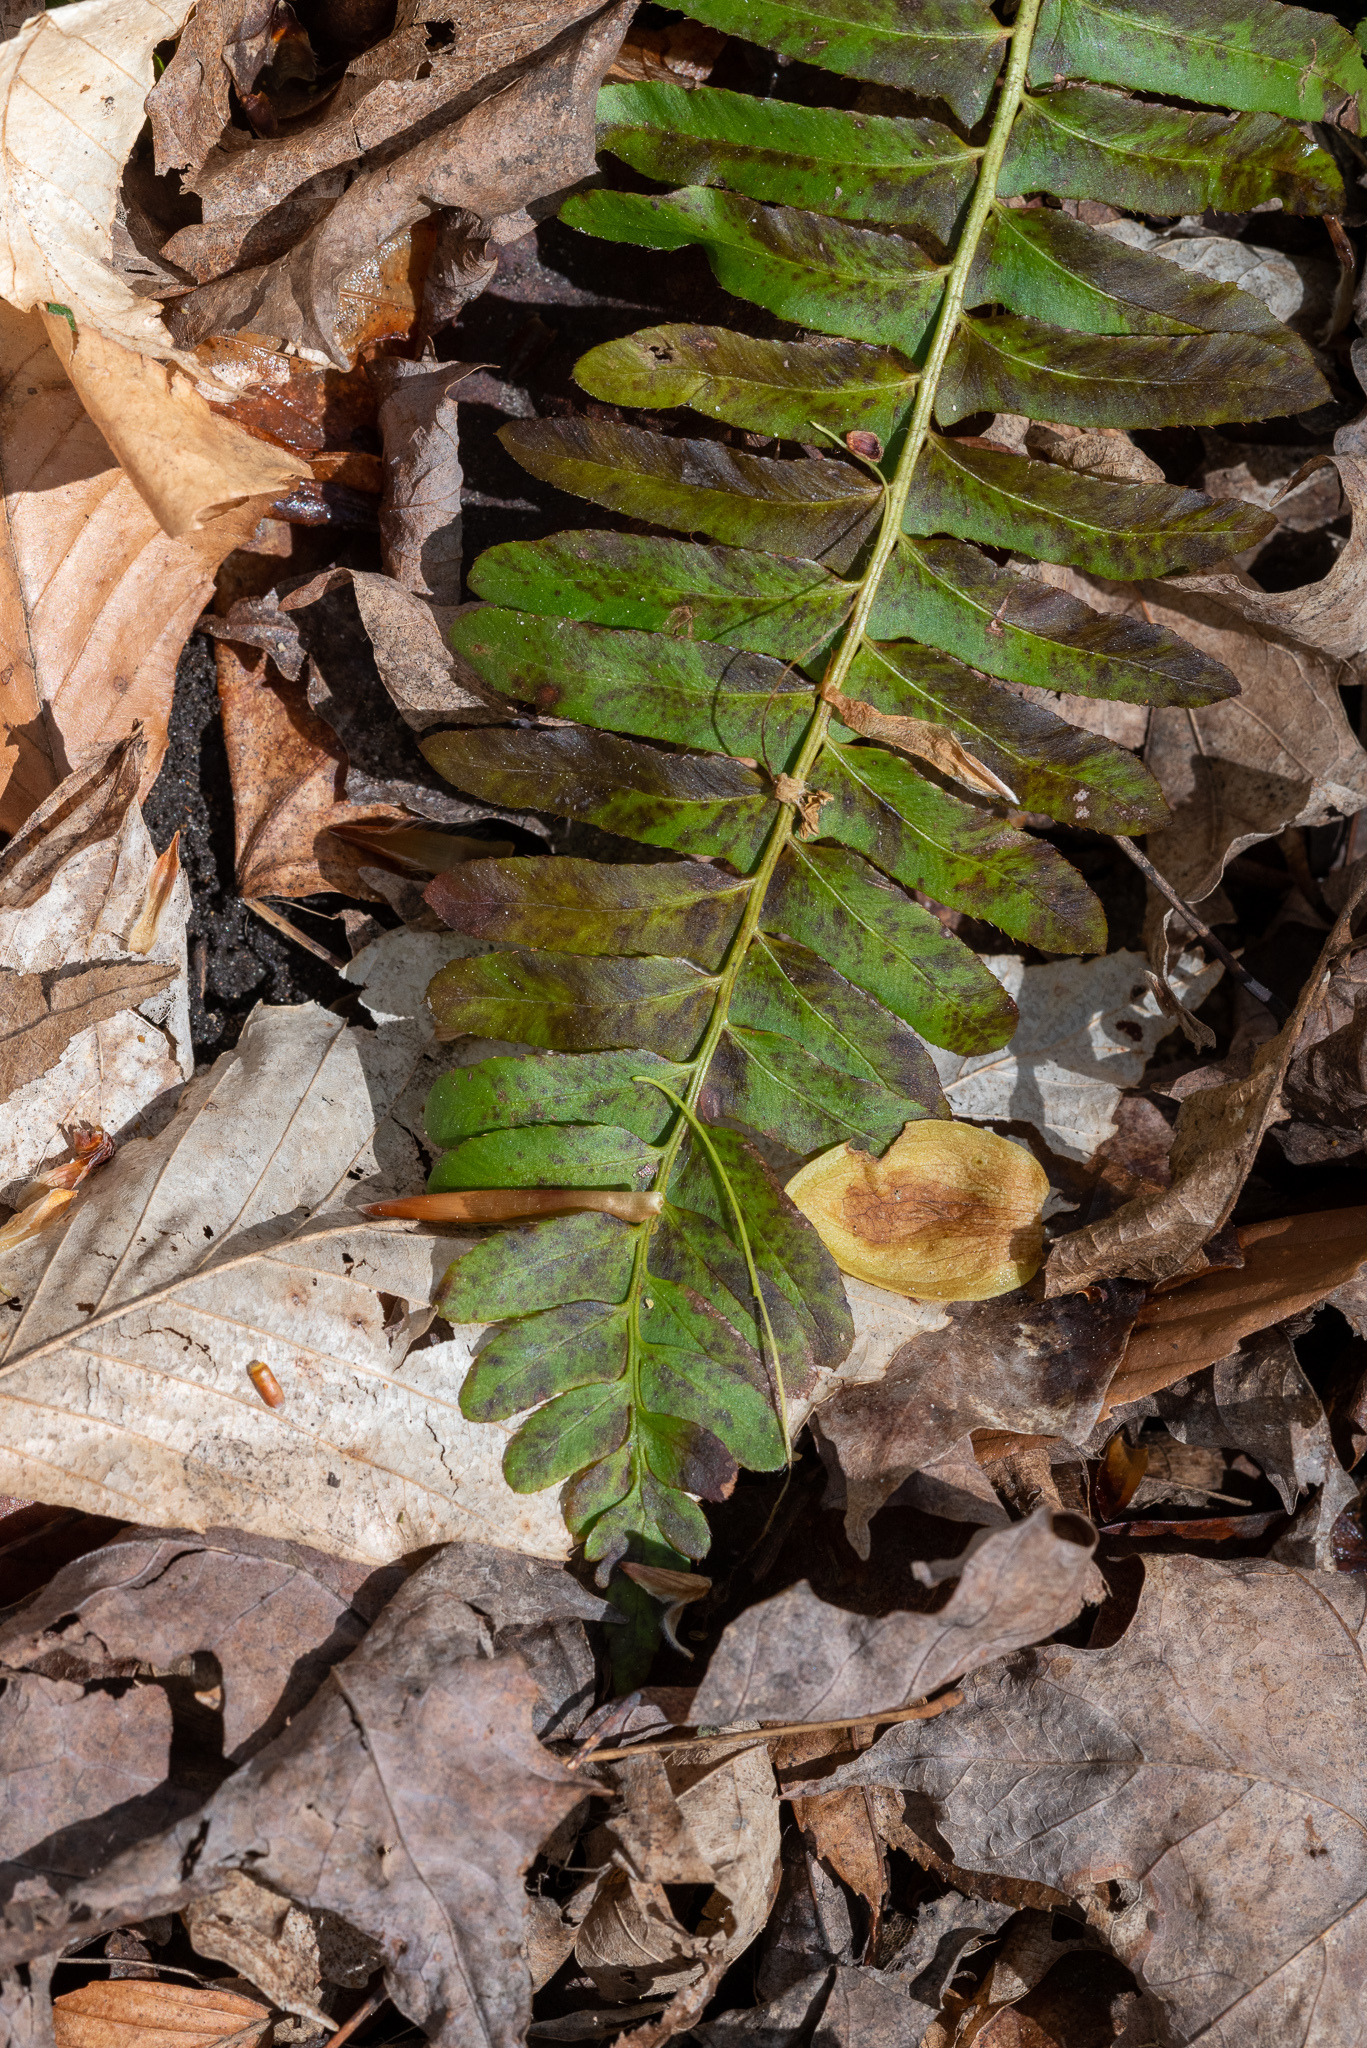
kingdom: Plantae
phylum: Tracheophyta
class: Polypodiopsida
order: Polypodiales
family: Dryopteridaceae
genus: Polystichum
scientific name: Polystichum acrostichoides
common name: Christmas fern
